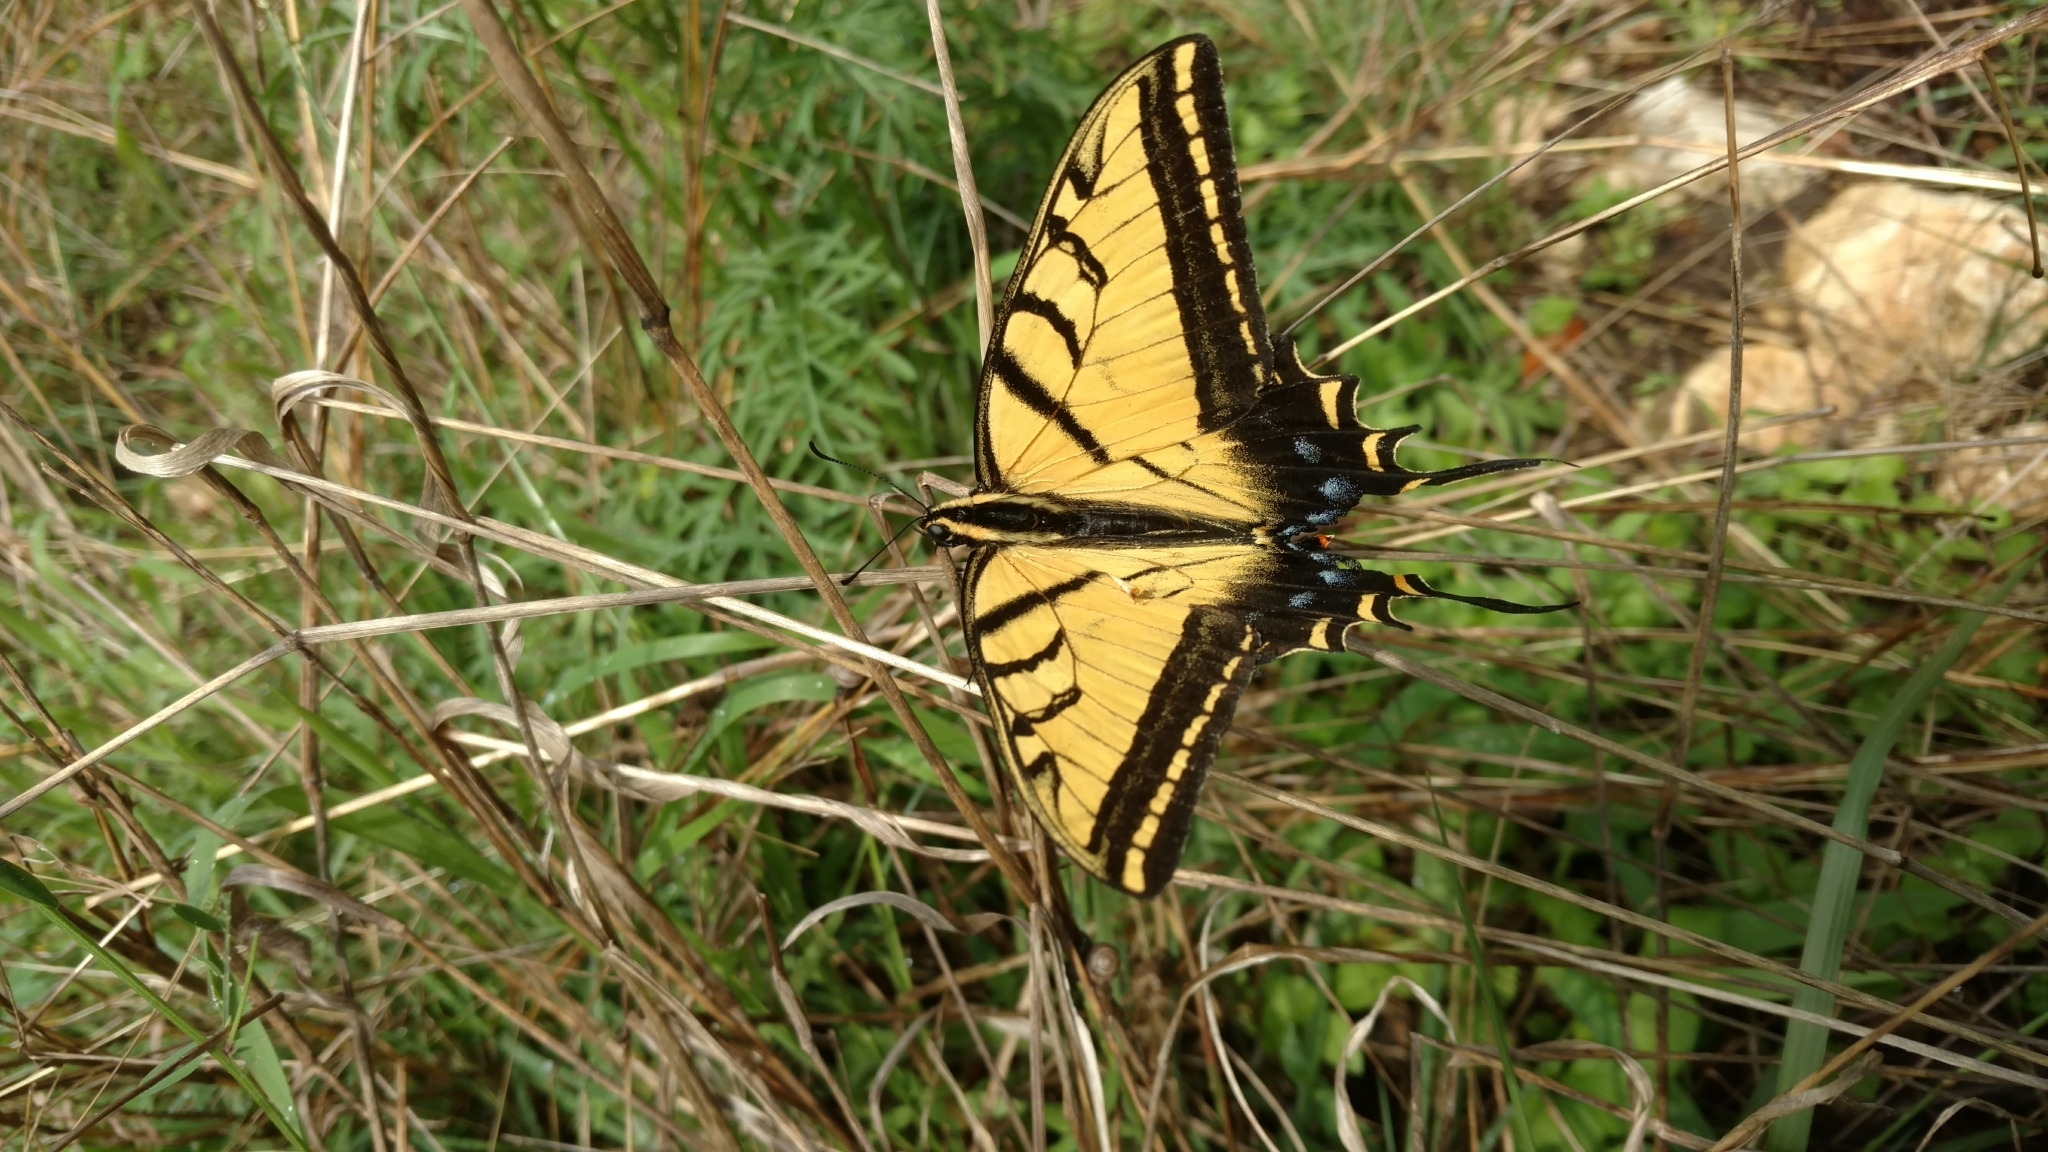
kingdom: Animalia
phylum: Arthropoda
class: Insecta
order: Lepidoptera
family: Papilionidae
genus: Papilio
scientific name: Papilio multicaudata
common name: Two-tailed tiger swallowtail
